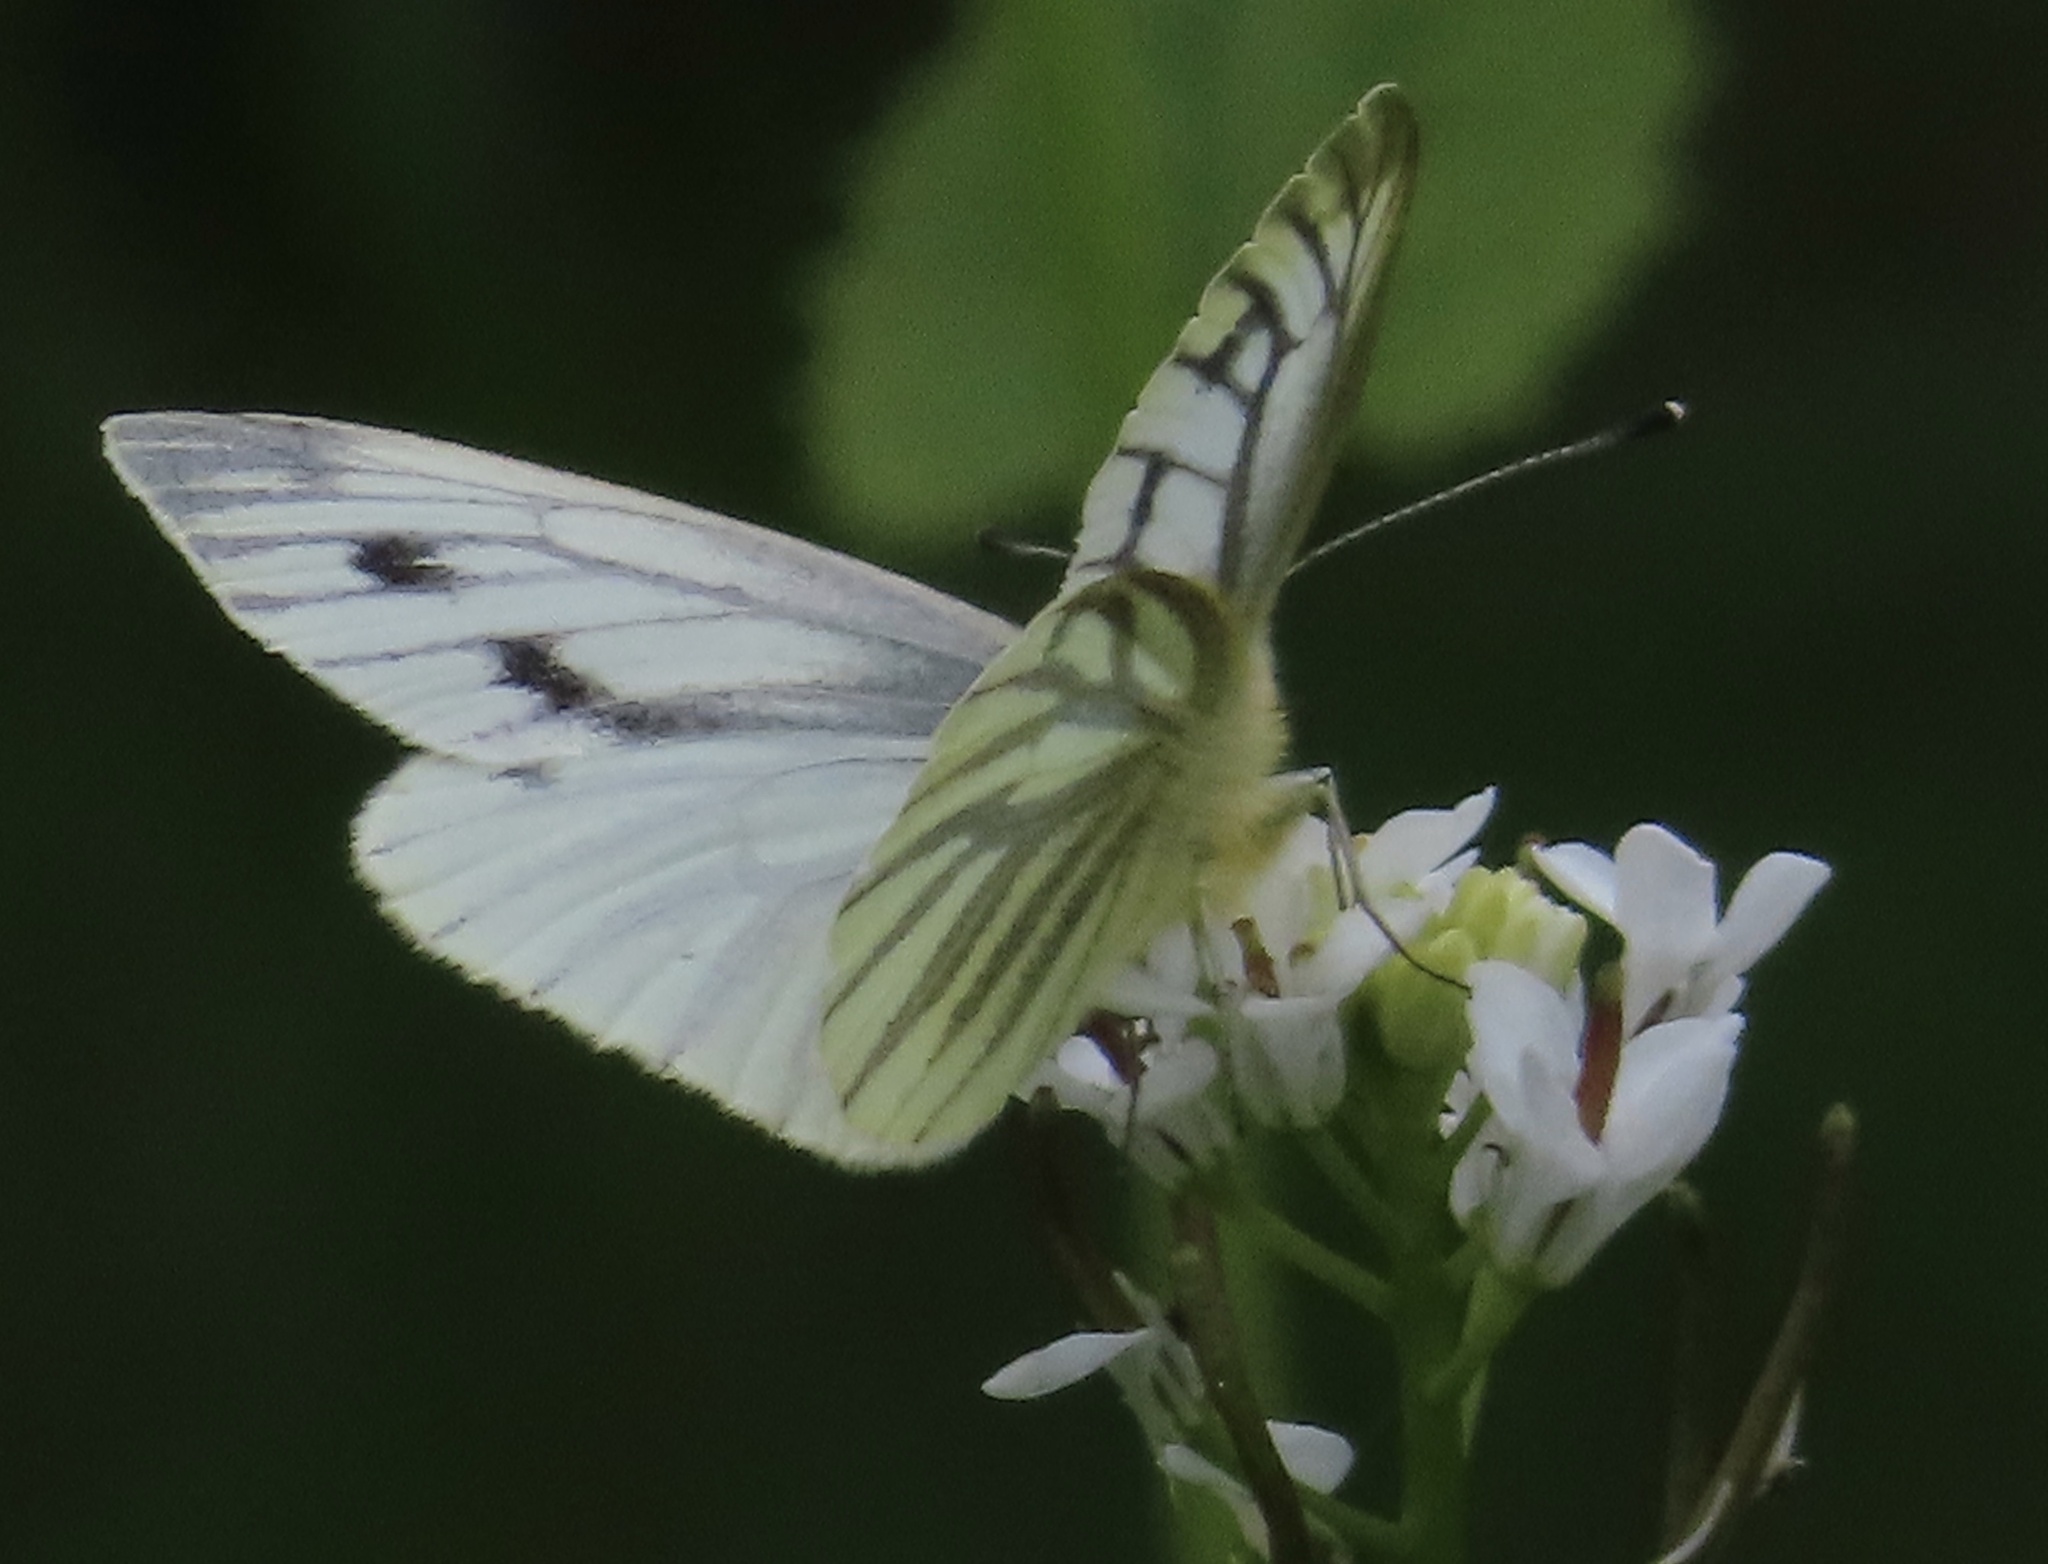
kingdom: Animalia
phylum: Arthropoda
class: Insecta
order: Lepidoptera
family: Pieridae
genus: Pieris
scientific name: Pieris napi
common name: Green-veined white
